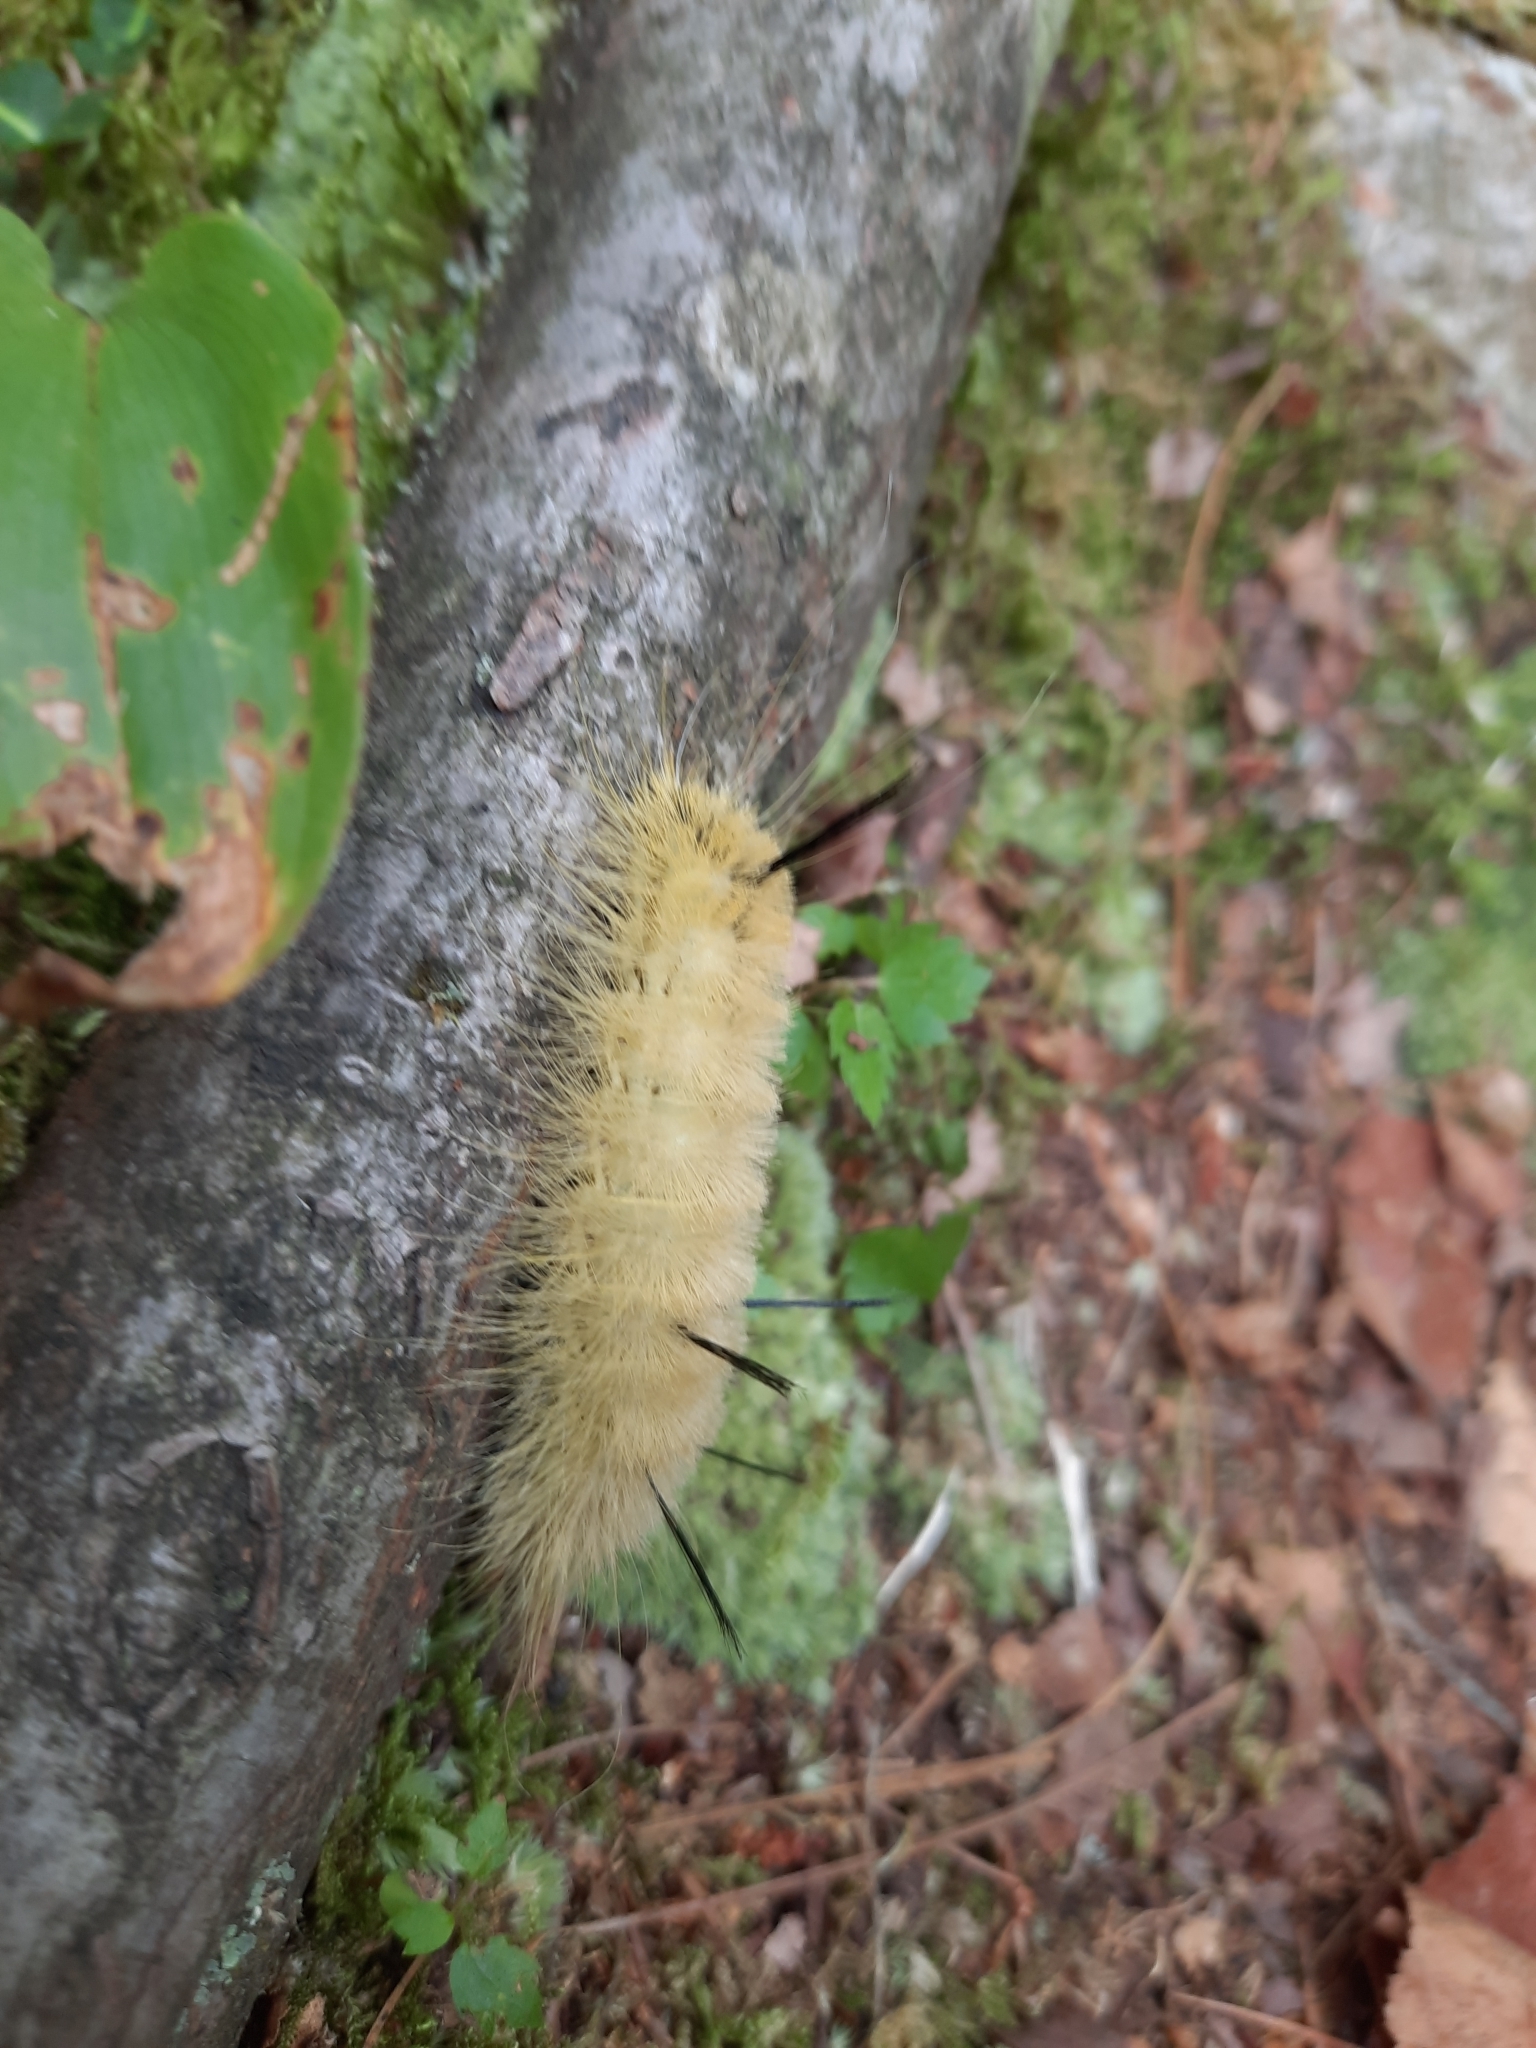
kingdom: Animalia
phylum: Arthropoda
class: Insecta
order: Lepidoptera
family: Noctuidae
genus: Acronicta
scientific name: Acronicta americana
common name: American dagger
